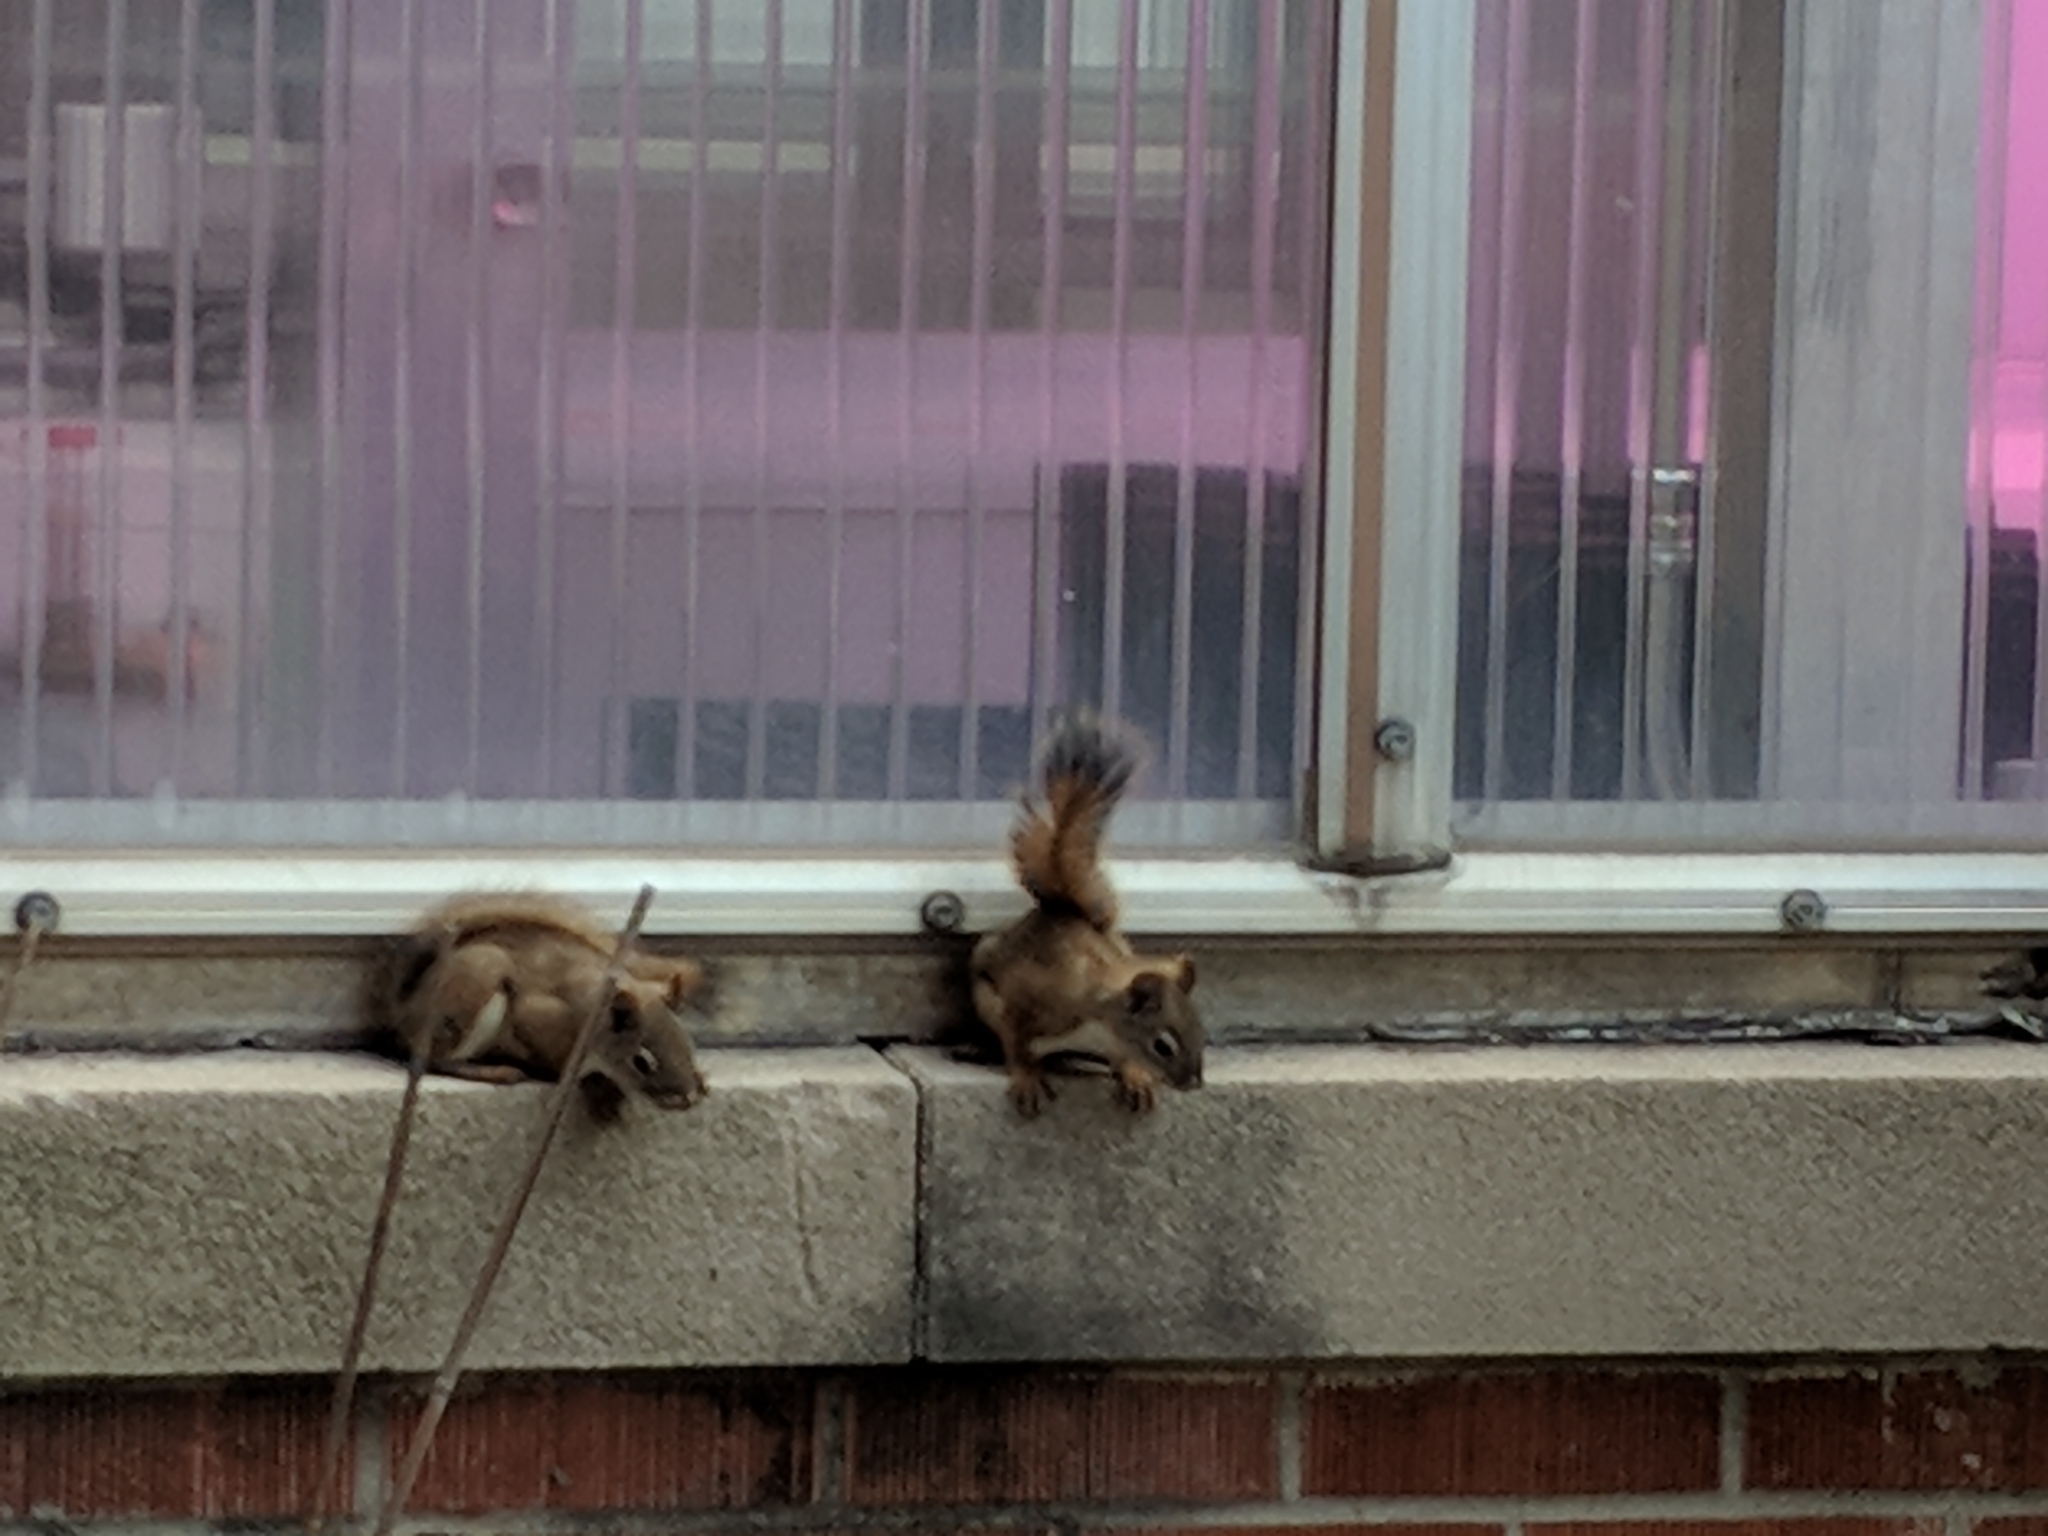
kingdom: Animalia
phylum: Chordata
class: Mammalia
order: Rodentia
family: Sciuridae
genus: Tamiasciurus
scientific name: Tamiasciurus hudsonicus
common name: Red squirrel
